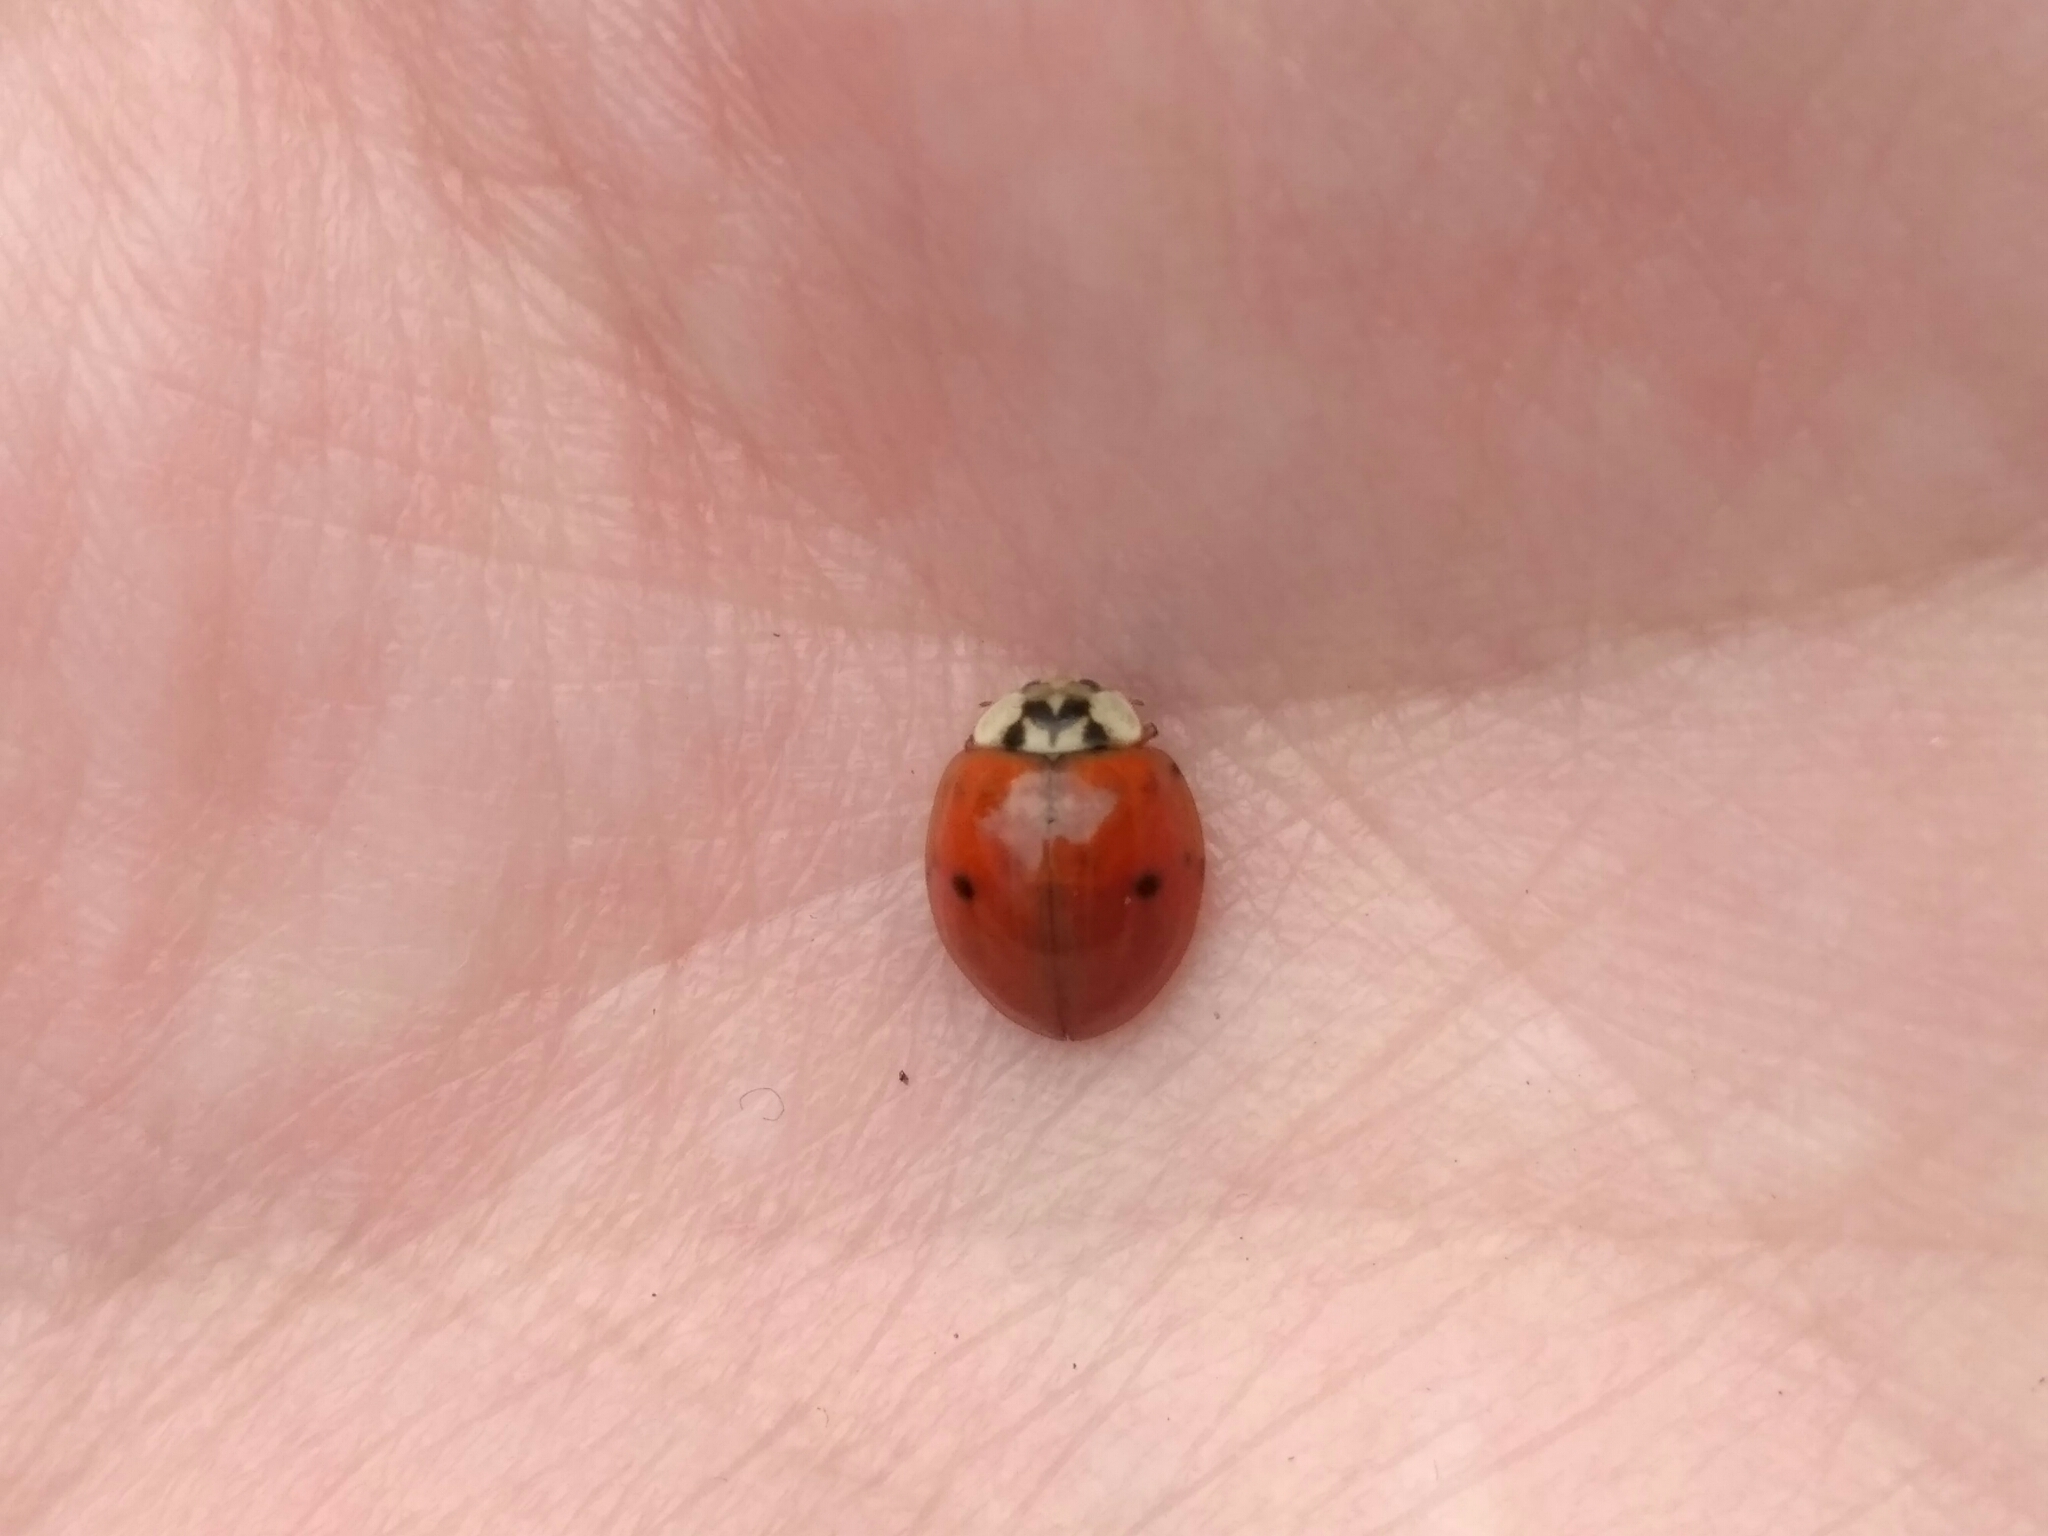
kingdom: Animalia
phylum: Arthropoda
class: Insecta
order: Coleoptera
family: Coccinellidae
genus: Harmonia
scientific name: Harmonia axyridis
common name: Harlequin ladybird
